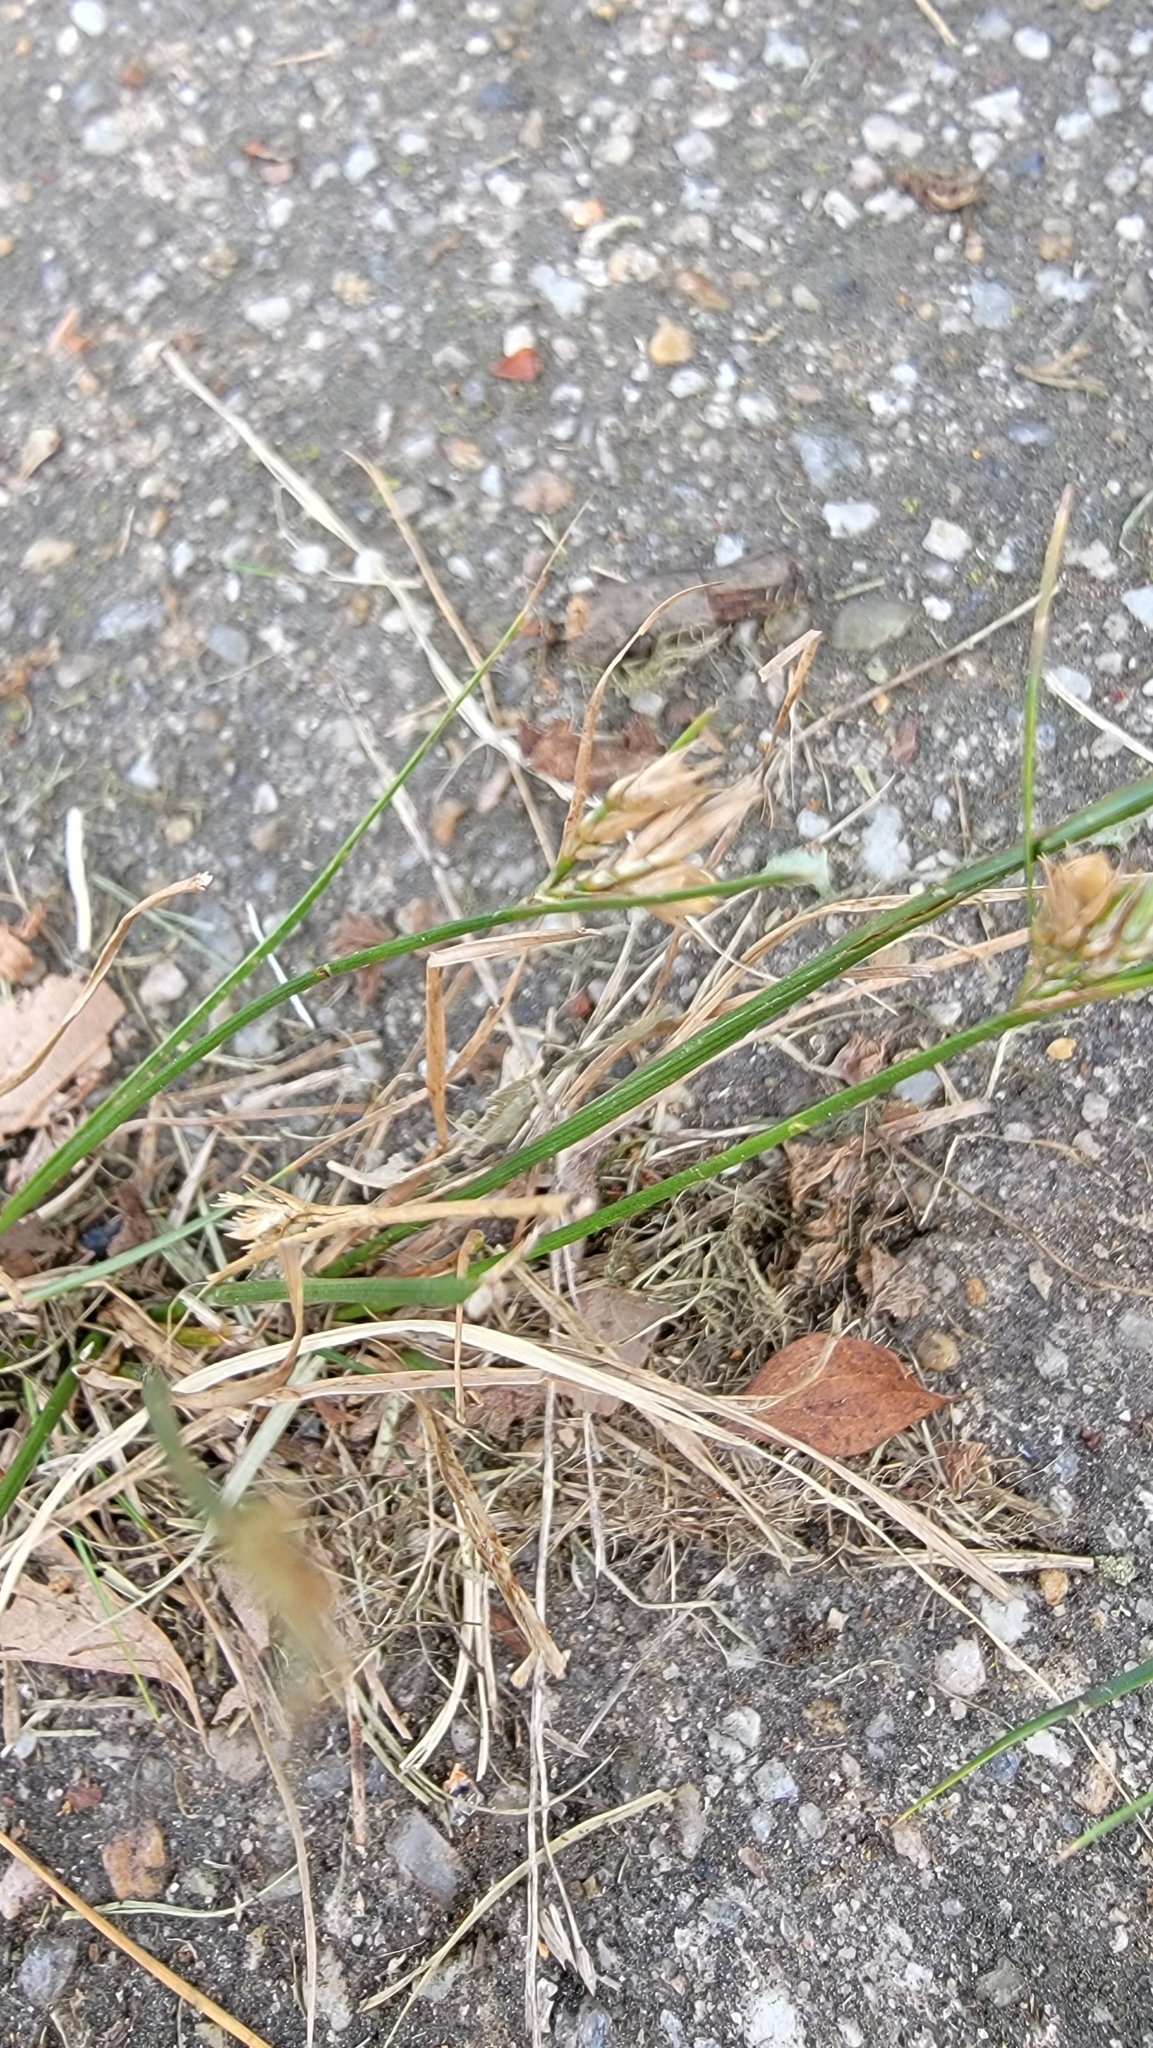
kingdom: Plantae
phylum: Tracheophyta
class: Liliopsida
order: Poales
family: Juncaceae
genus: Juncus
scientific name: Juncus tenuis
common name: Slender rush
